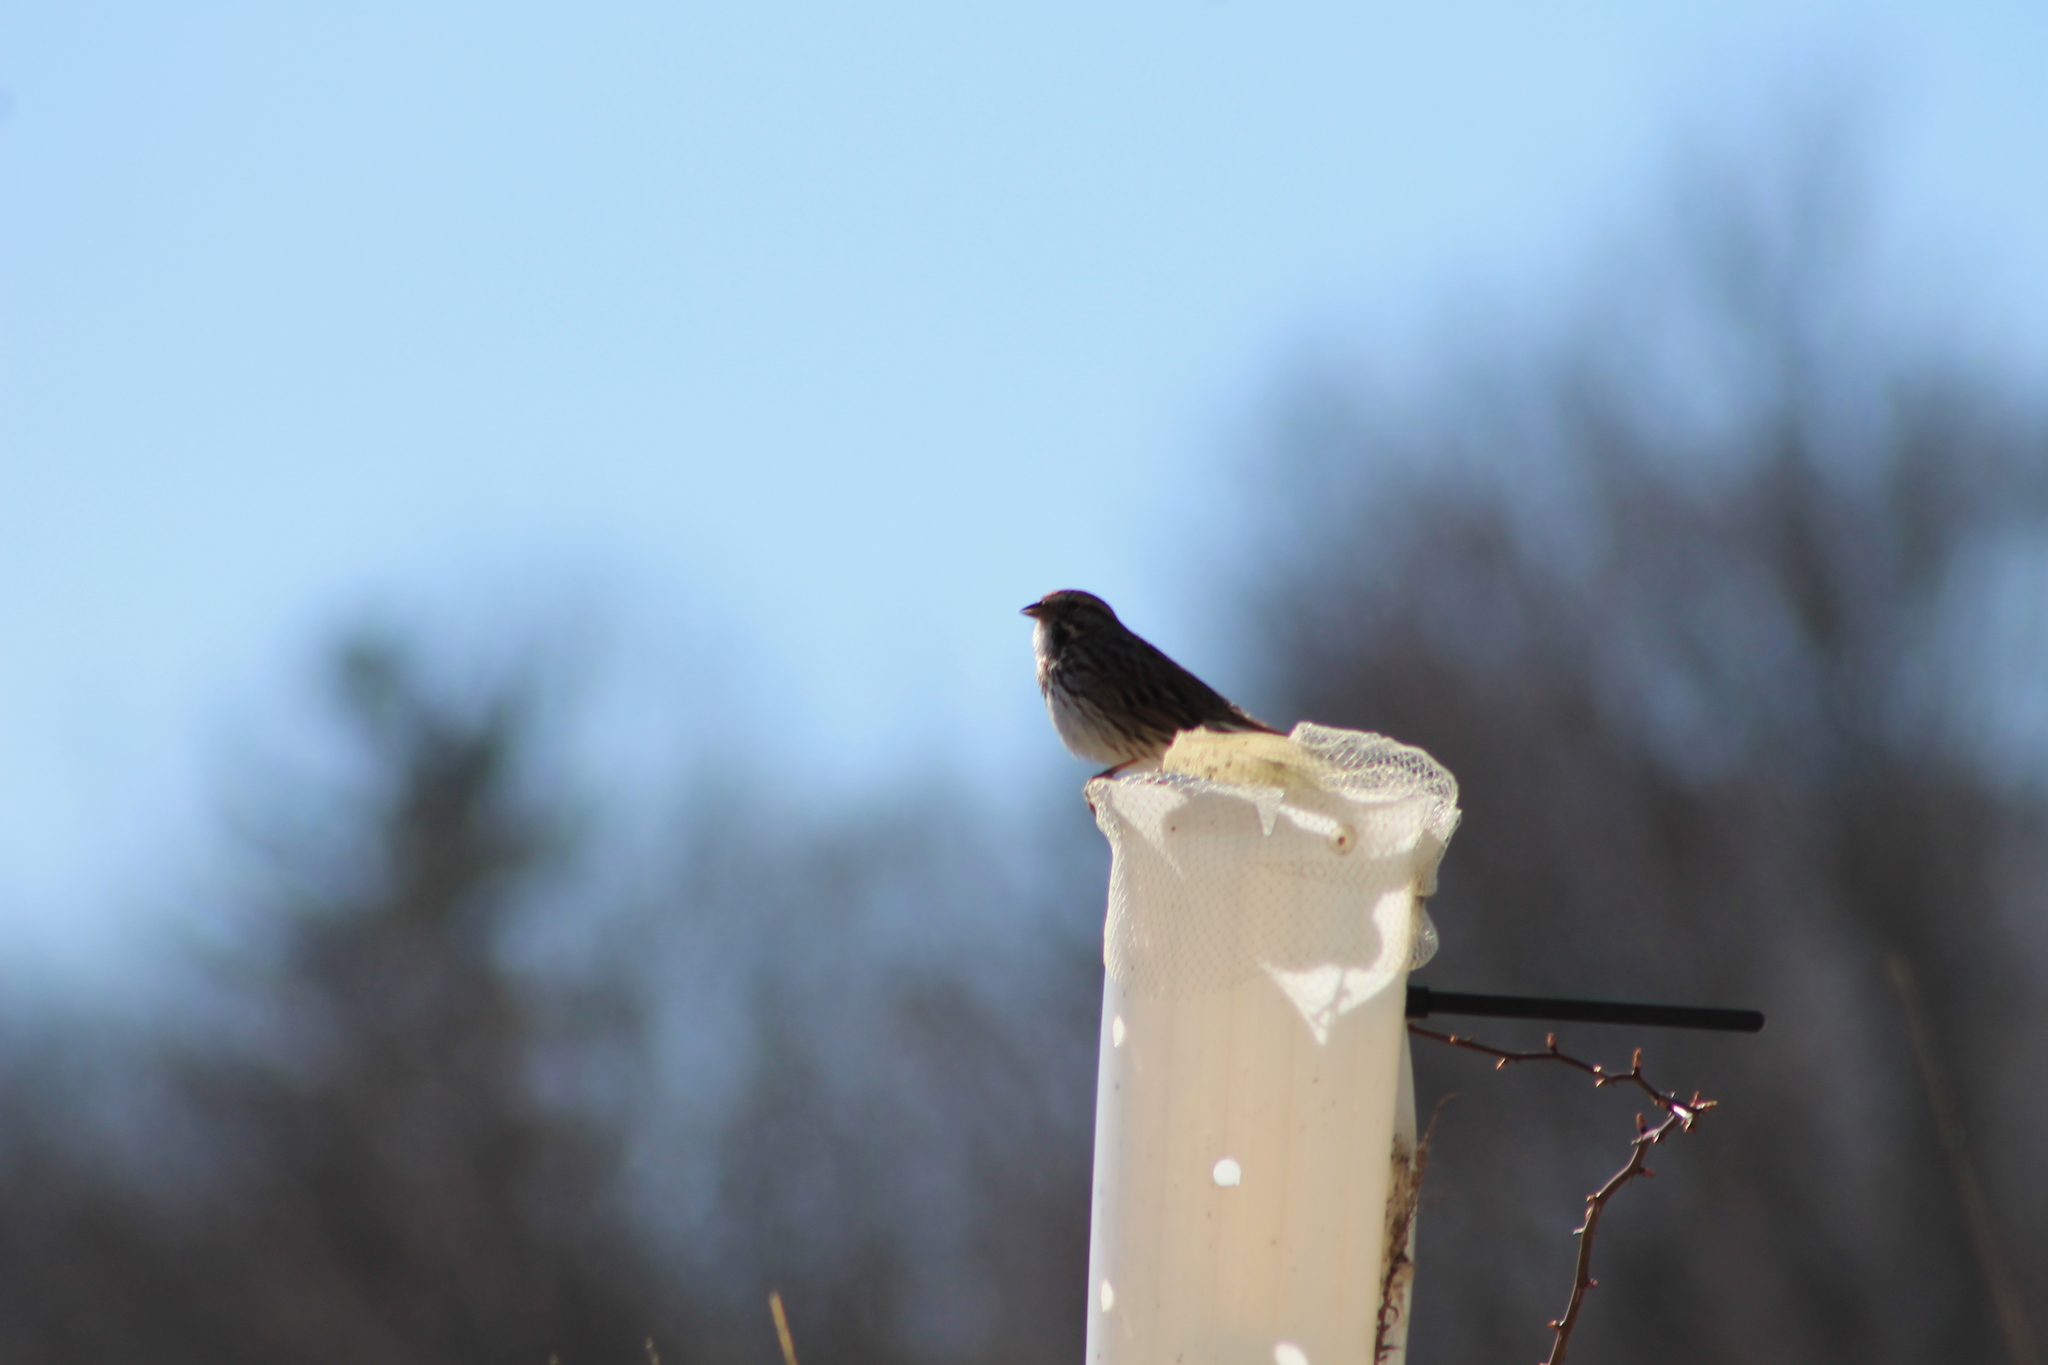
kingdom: Animalia
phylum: Chordata
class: Aves
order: Passeriformes
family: Passerellidae
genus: Melospiza
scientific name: Melospiza melodia
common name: Song sparrow
